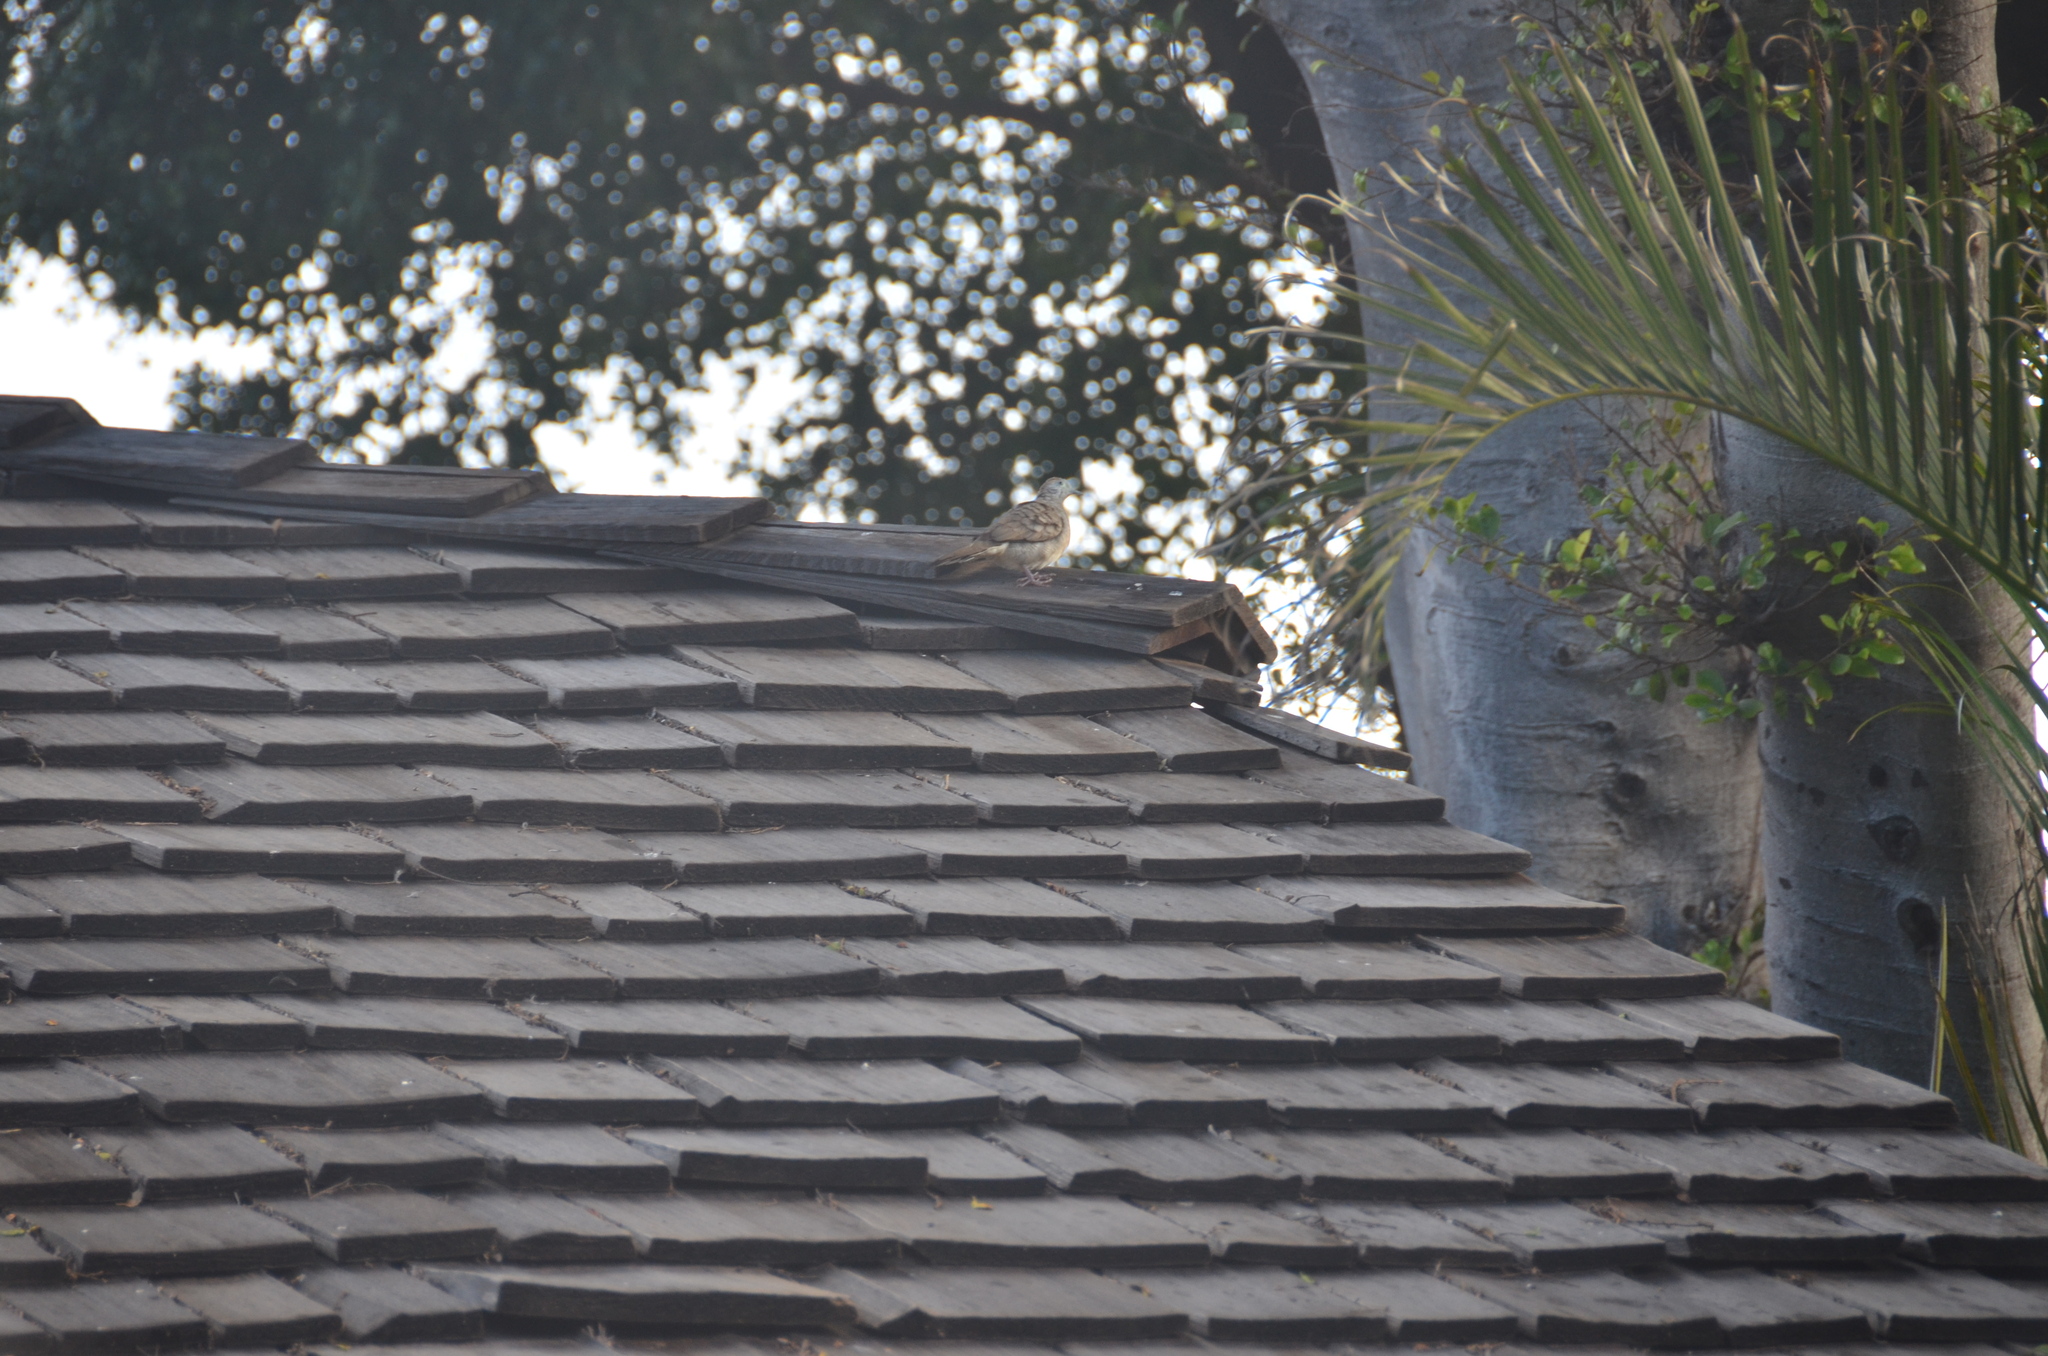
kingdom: Animalia
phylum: Chordata
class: Aves
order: Columbiformes
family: Columbidae
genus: Geopelia
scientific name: Geopelia striata
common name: Zebra dove
